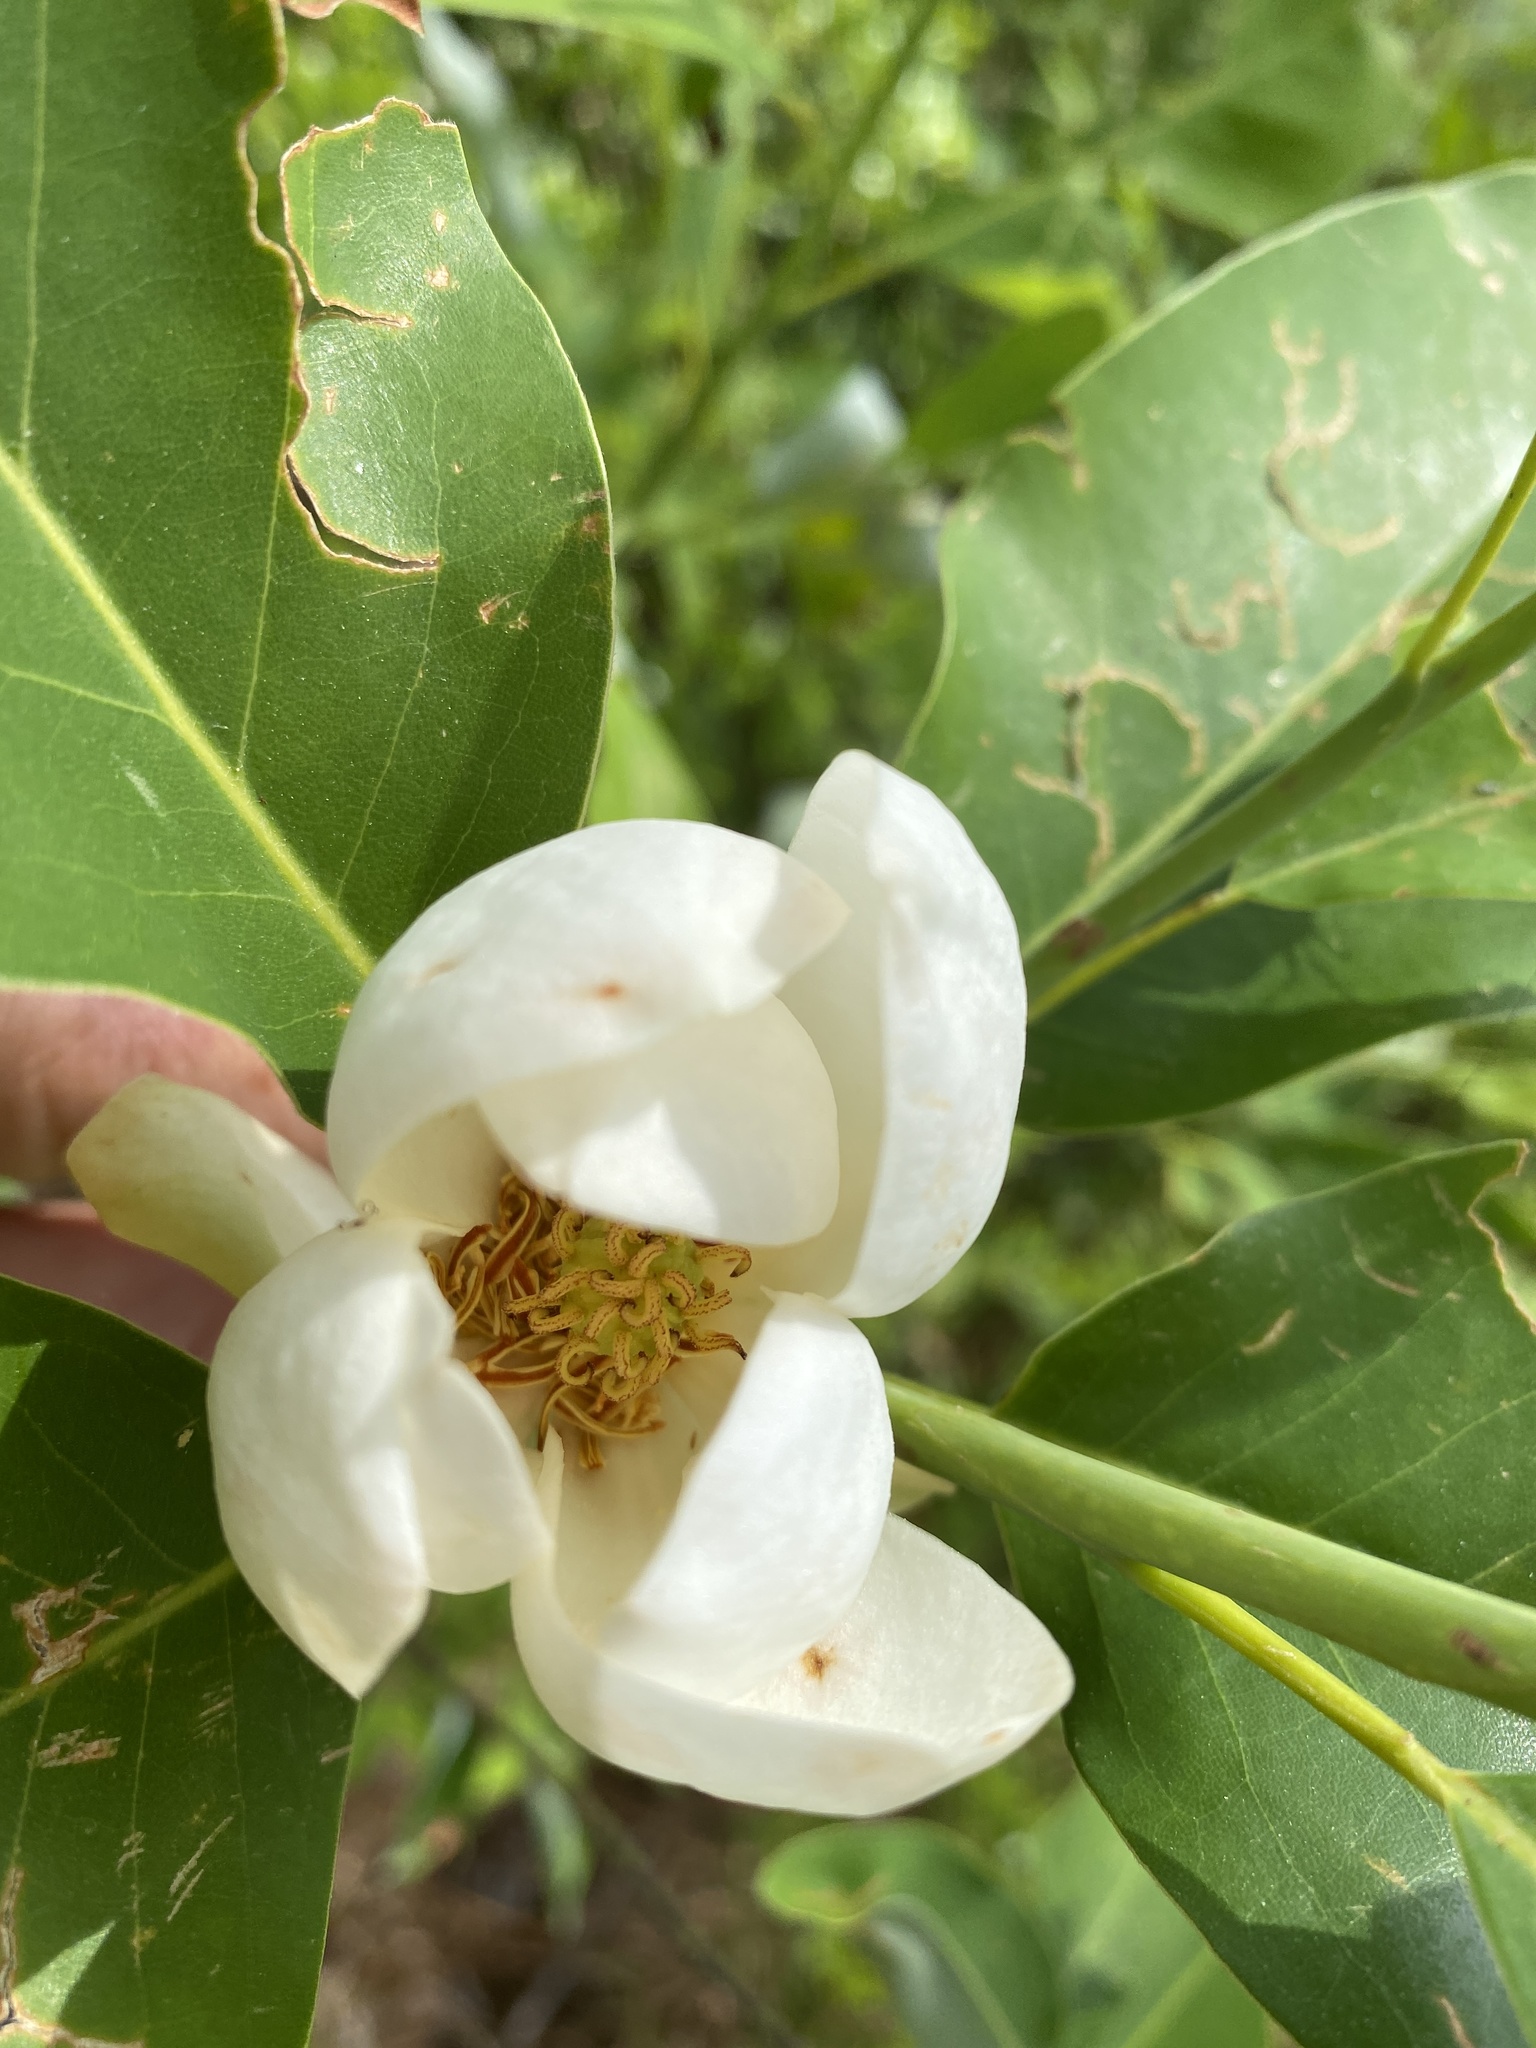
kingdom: Plantae
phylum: Tracheophyta
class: Magnoliopsida
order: Magnoliales
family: Magnoliaceae
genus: Magnolia
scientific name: Magnolia virginiana
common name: Swamp bay
